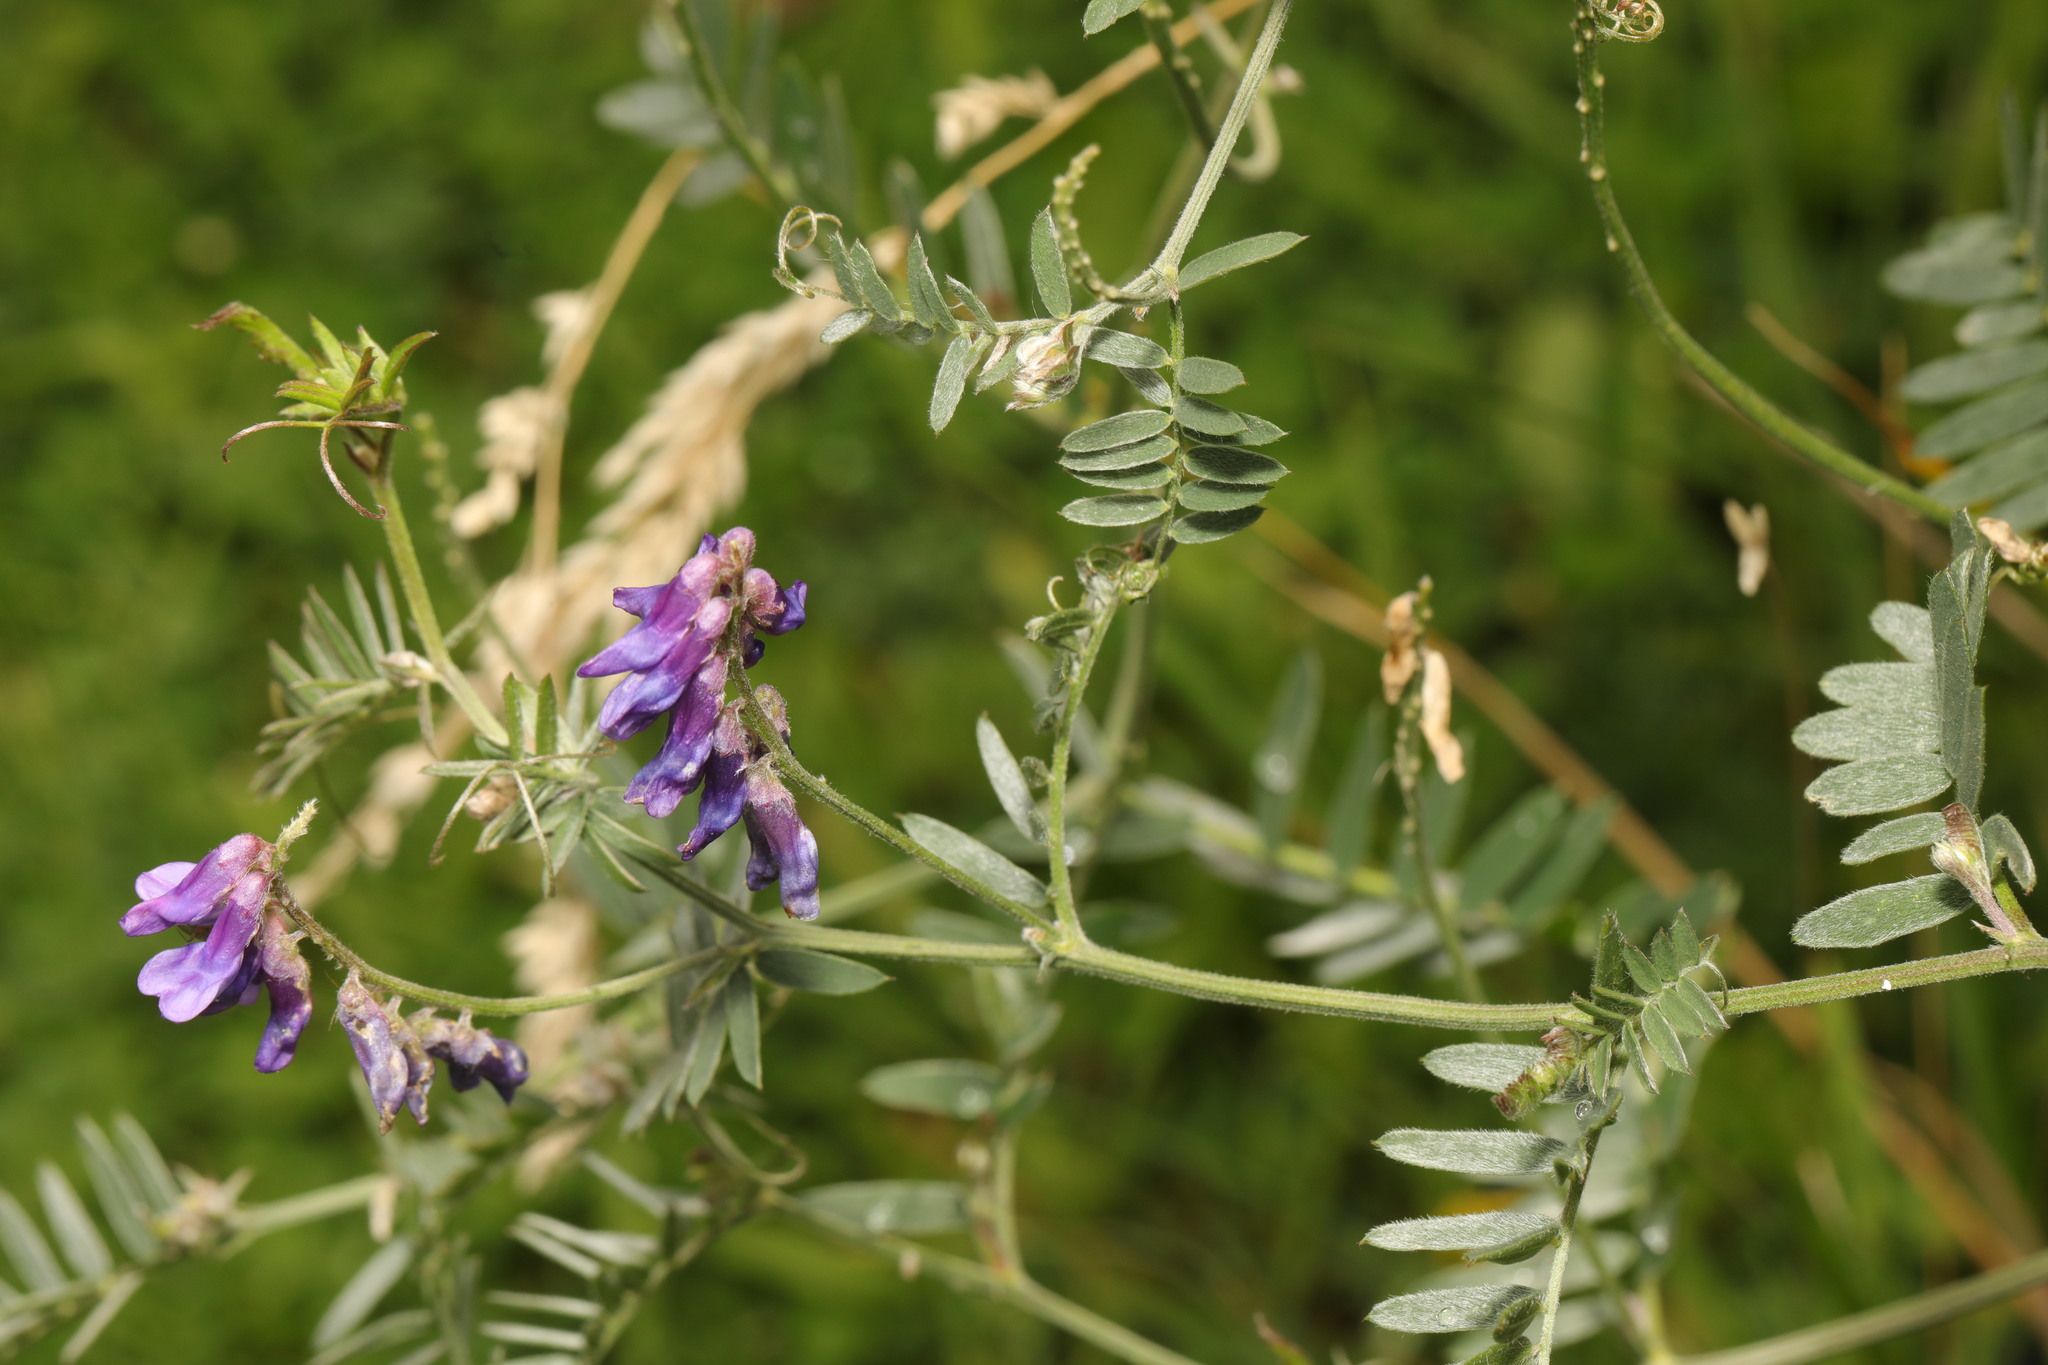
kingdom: Plantae
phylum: Tracheophyta
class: Magnoliopsida
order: Fabales
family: Fabaceae
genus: Vicia
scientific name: Vicia cracca
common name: Bird vetch
